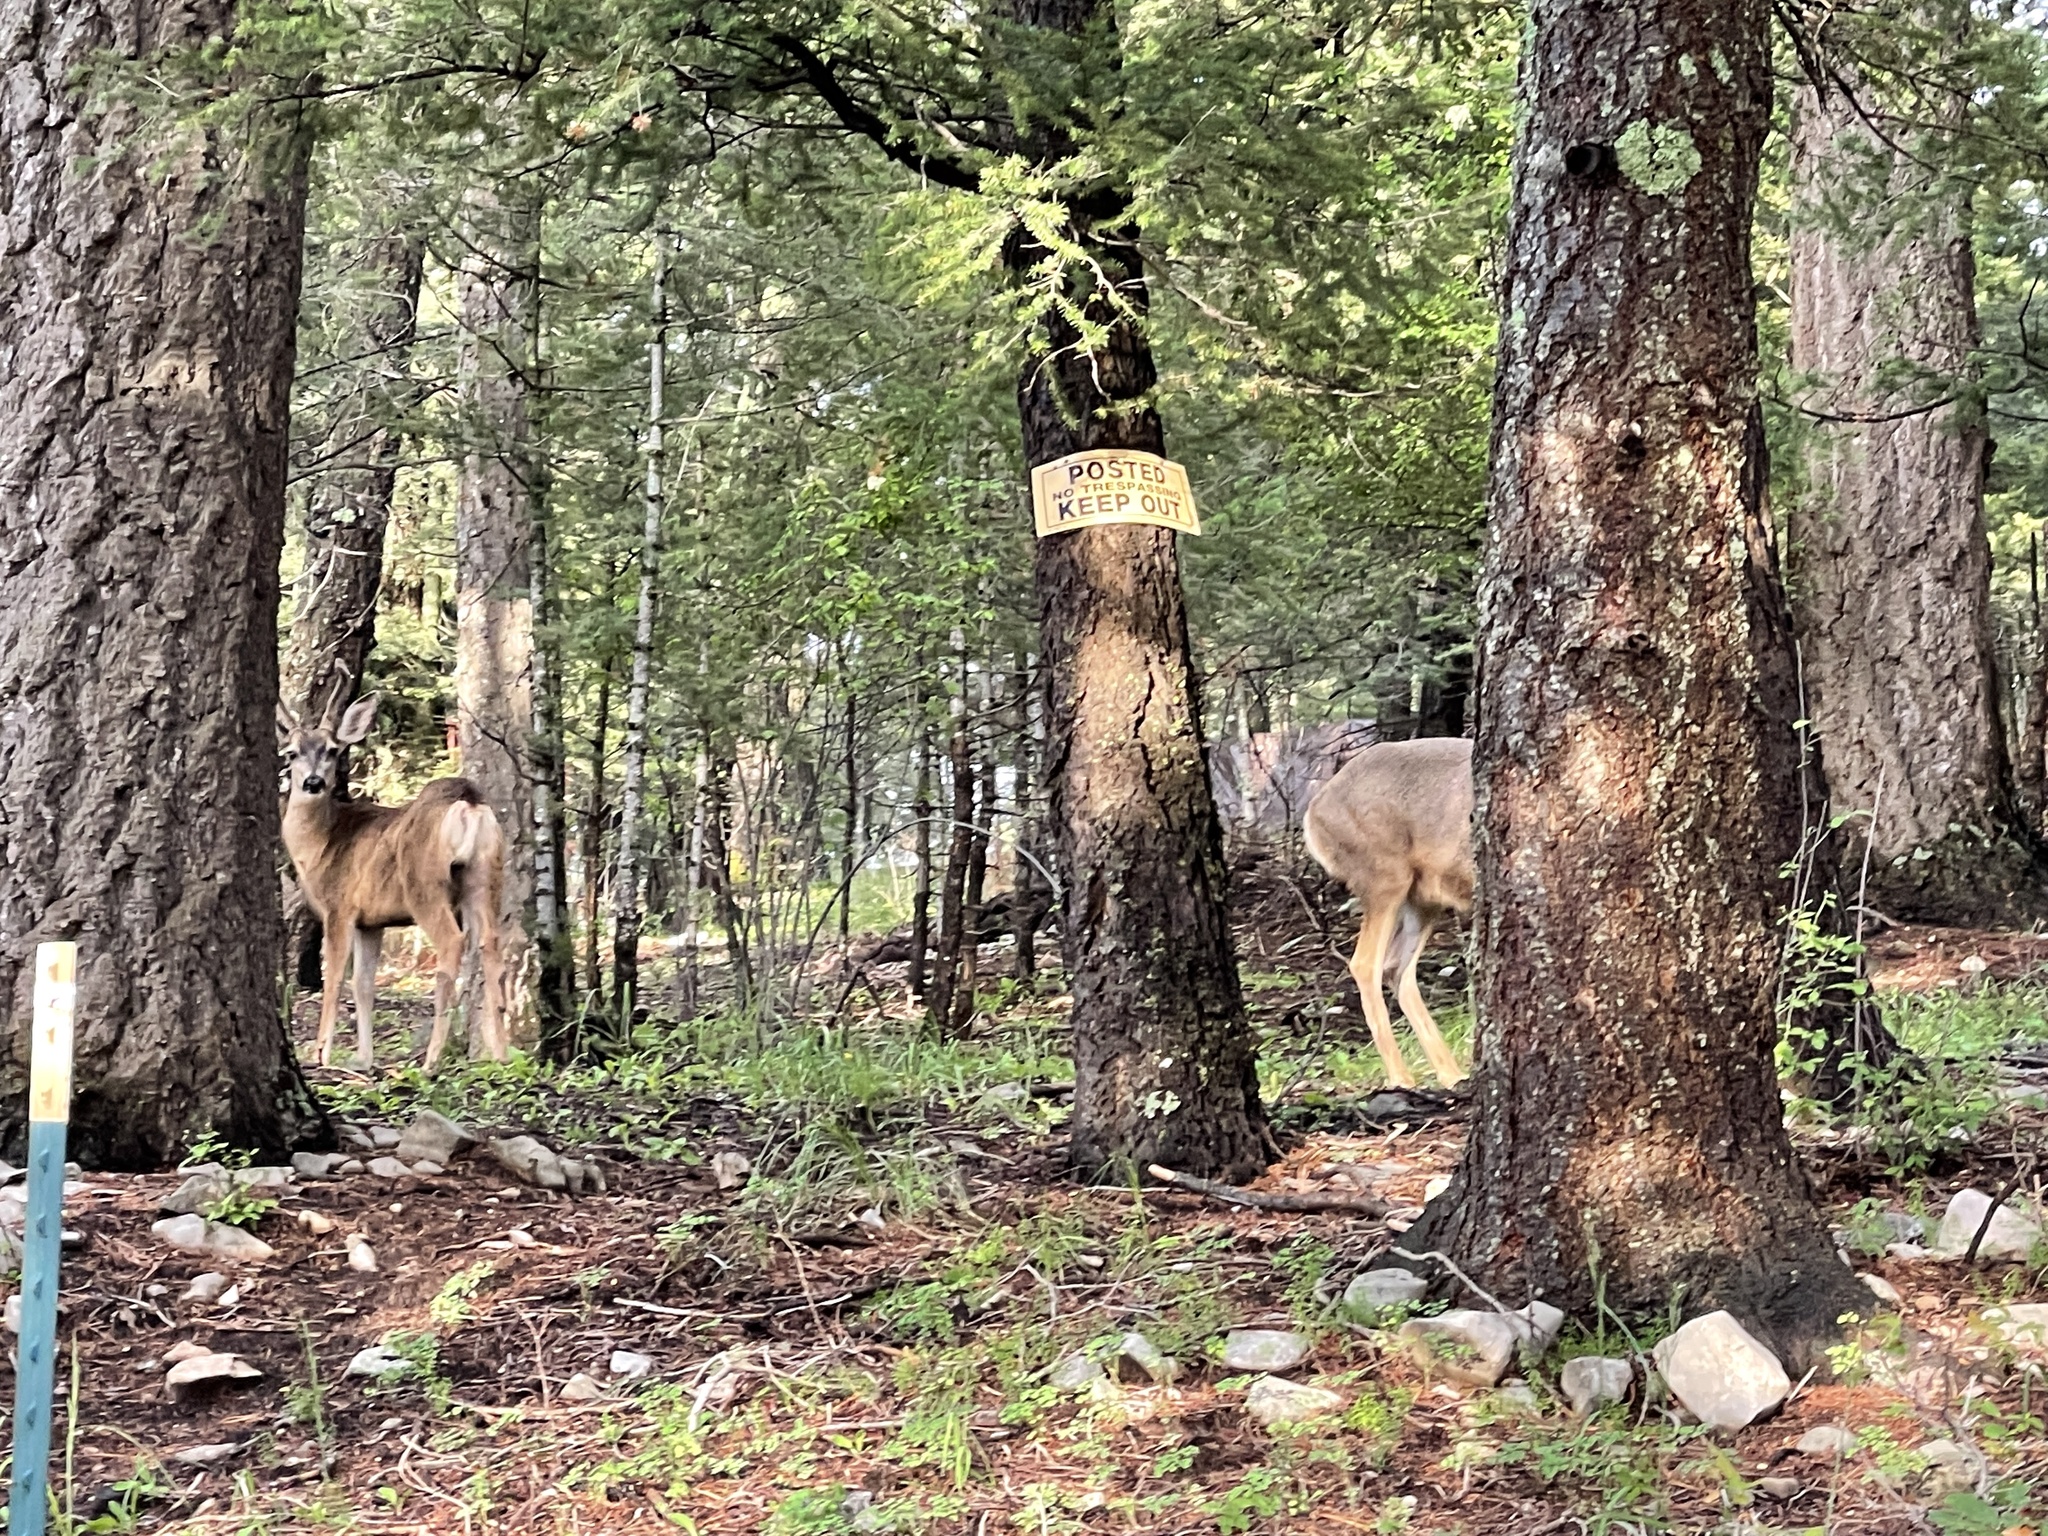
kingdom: Animalia
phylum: Chordata
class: Mammalia
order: Artiodactyla
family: Cervidae
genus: Odocoileus
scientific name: Odocoileus hemionus
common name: Mule deer
